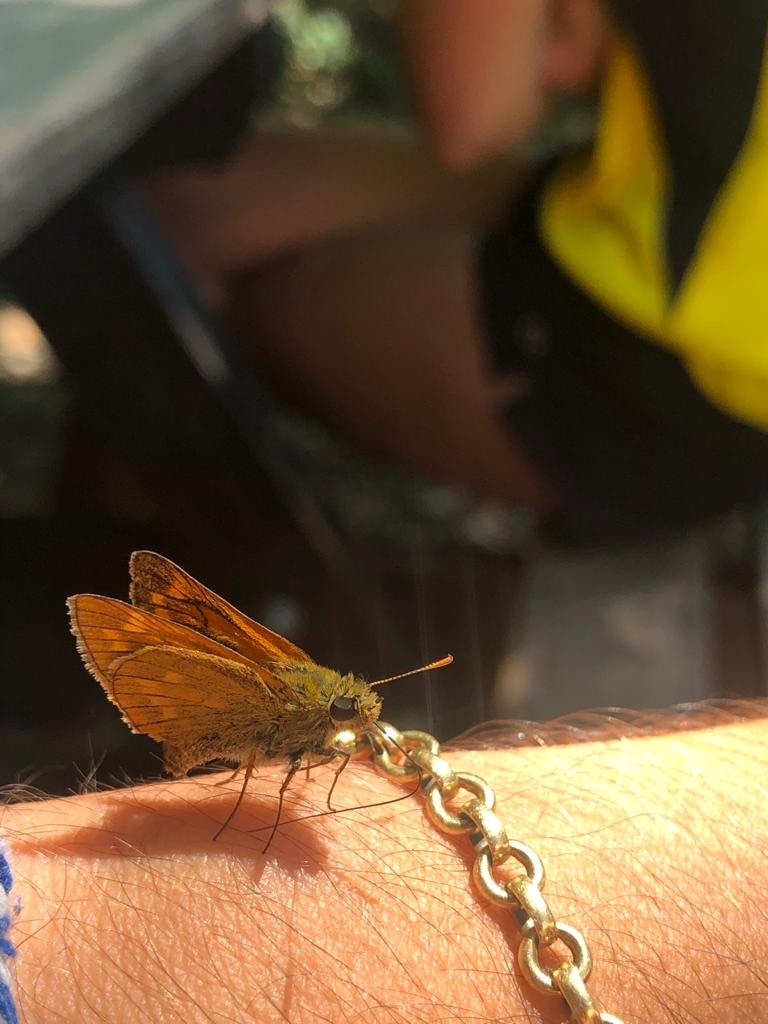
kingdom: Animalia
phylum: Arthropoda
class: Insecta
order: Lepidoptera
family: Hesperiidae
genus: Ochlodes
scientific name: Ochlodes venata
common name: Large skipper
